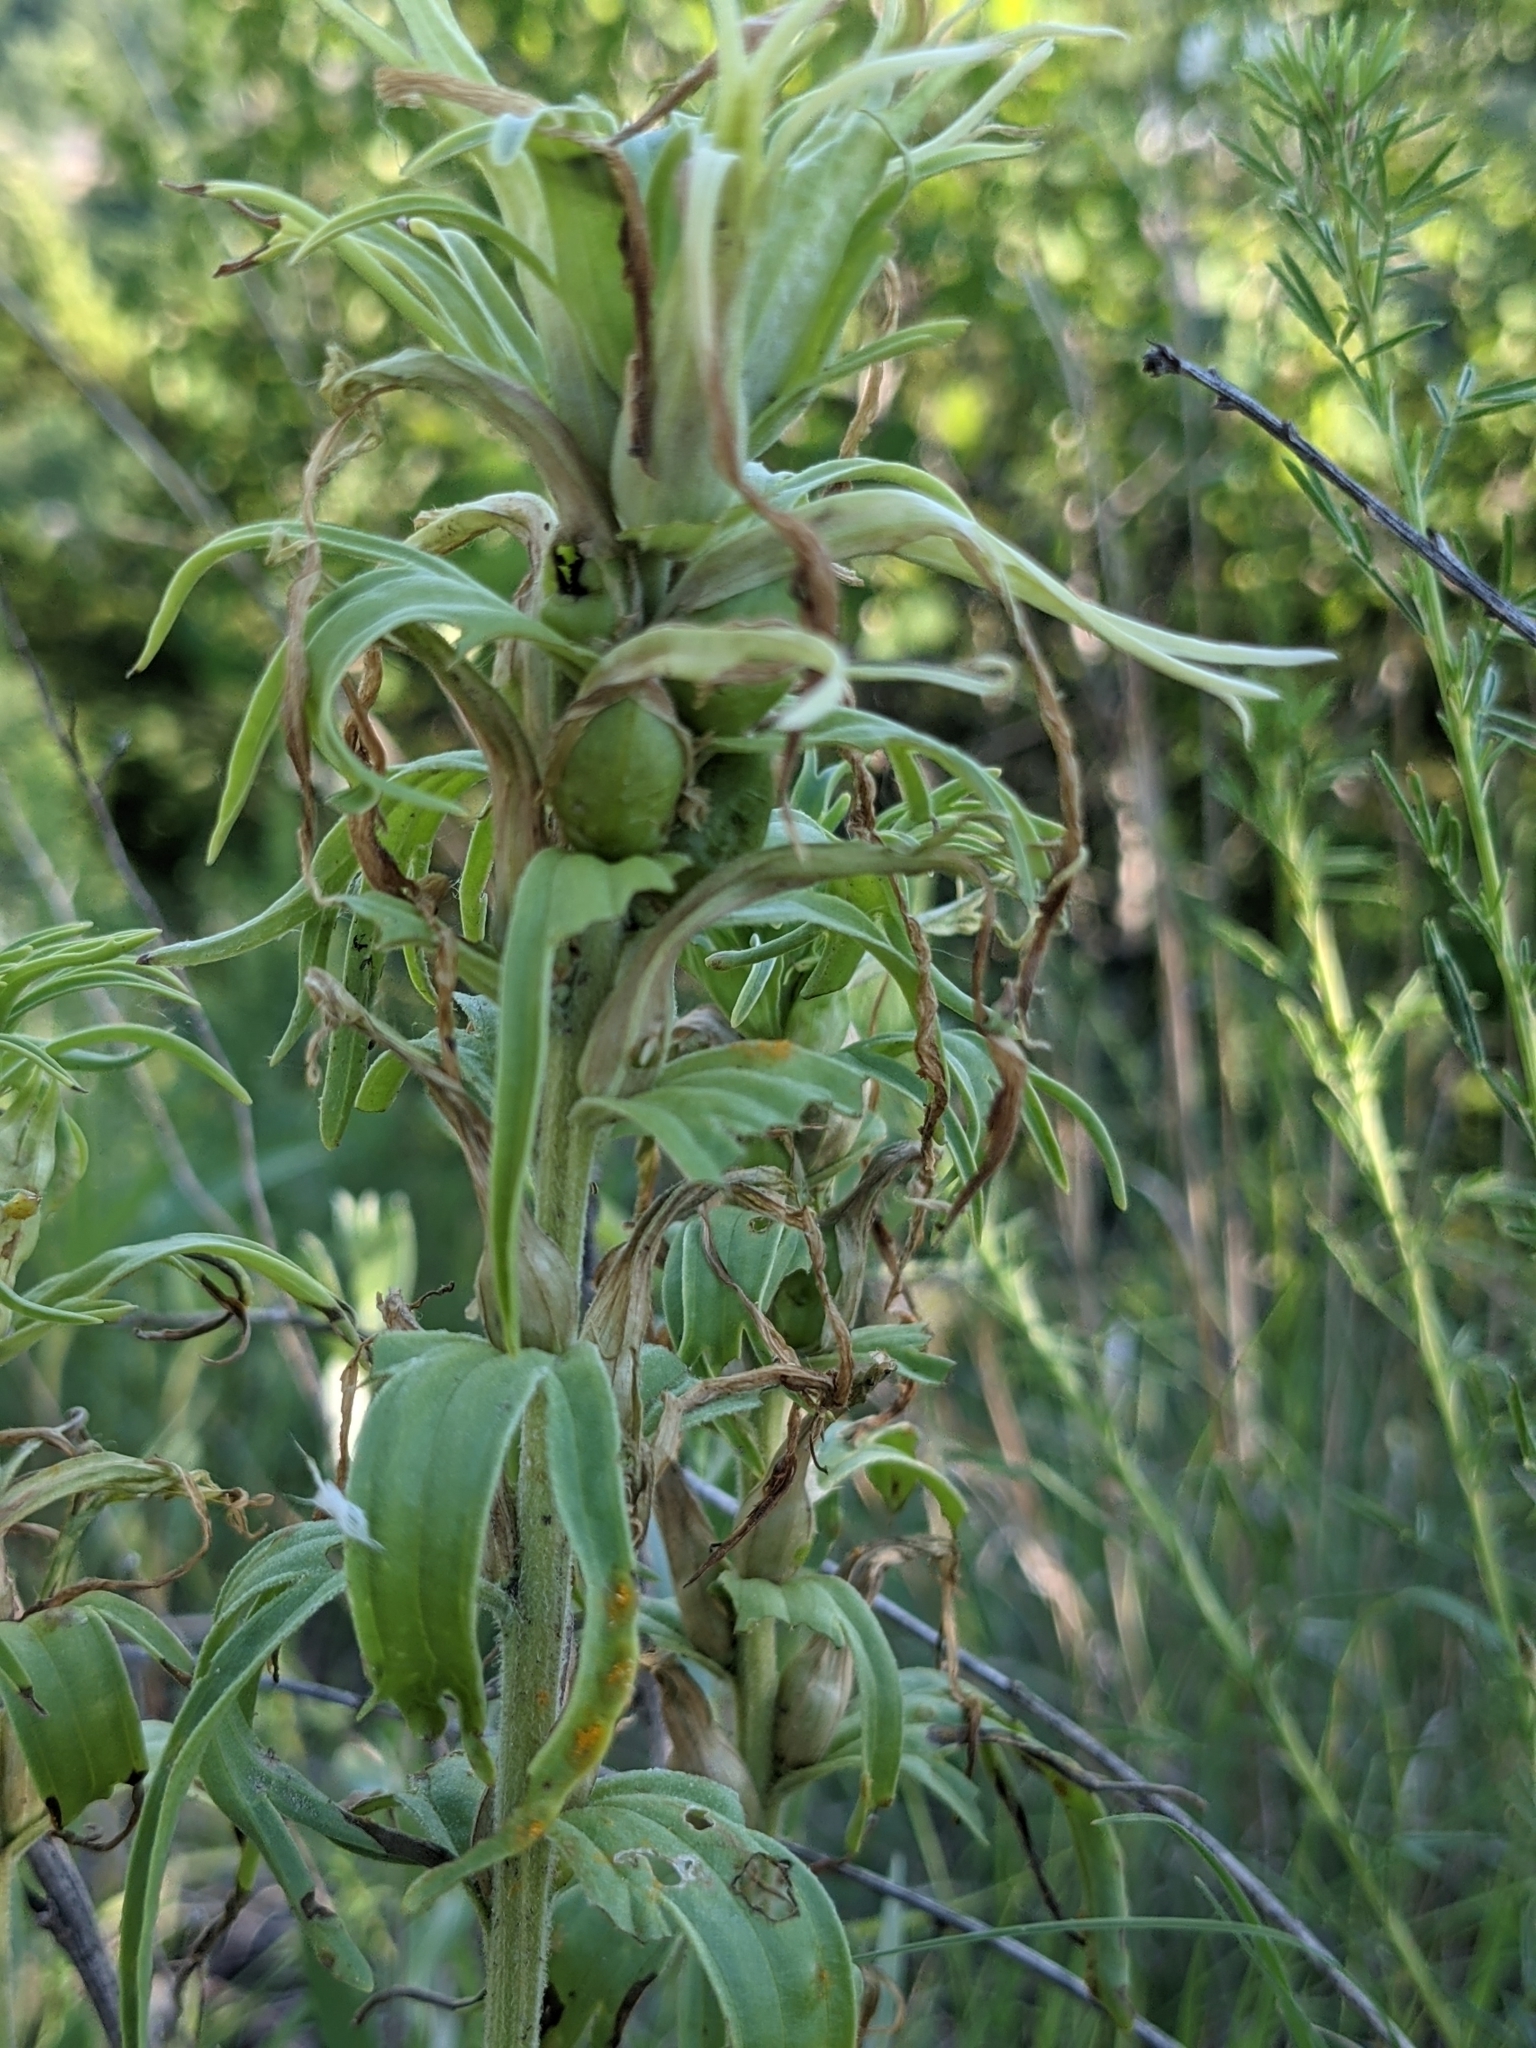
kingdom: Plantae
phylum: Tracheophyta
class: Magnoliopsida
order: Lamiales
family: Orobanchaceae
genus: Castilleja
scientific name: Castilleja sessiliflora
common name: Downy paintbrush
